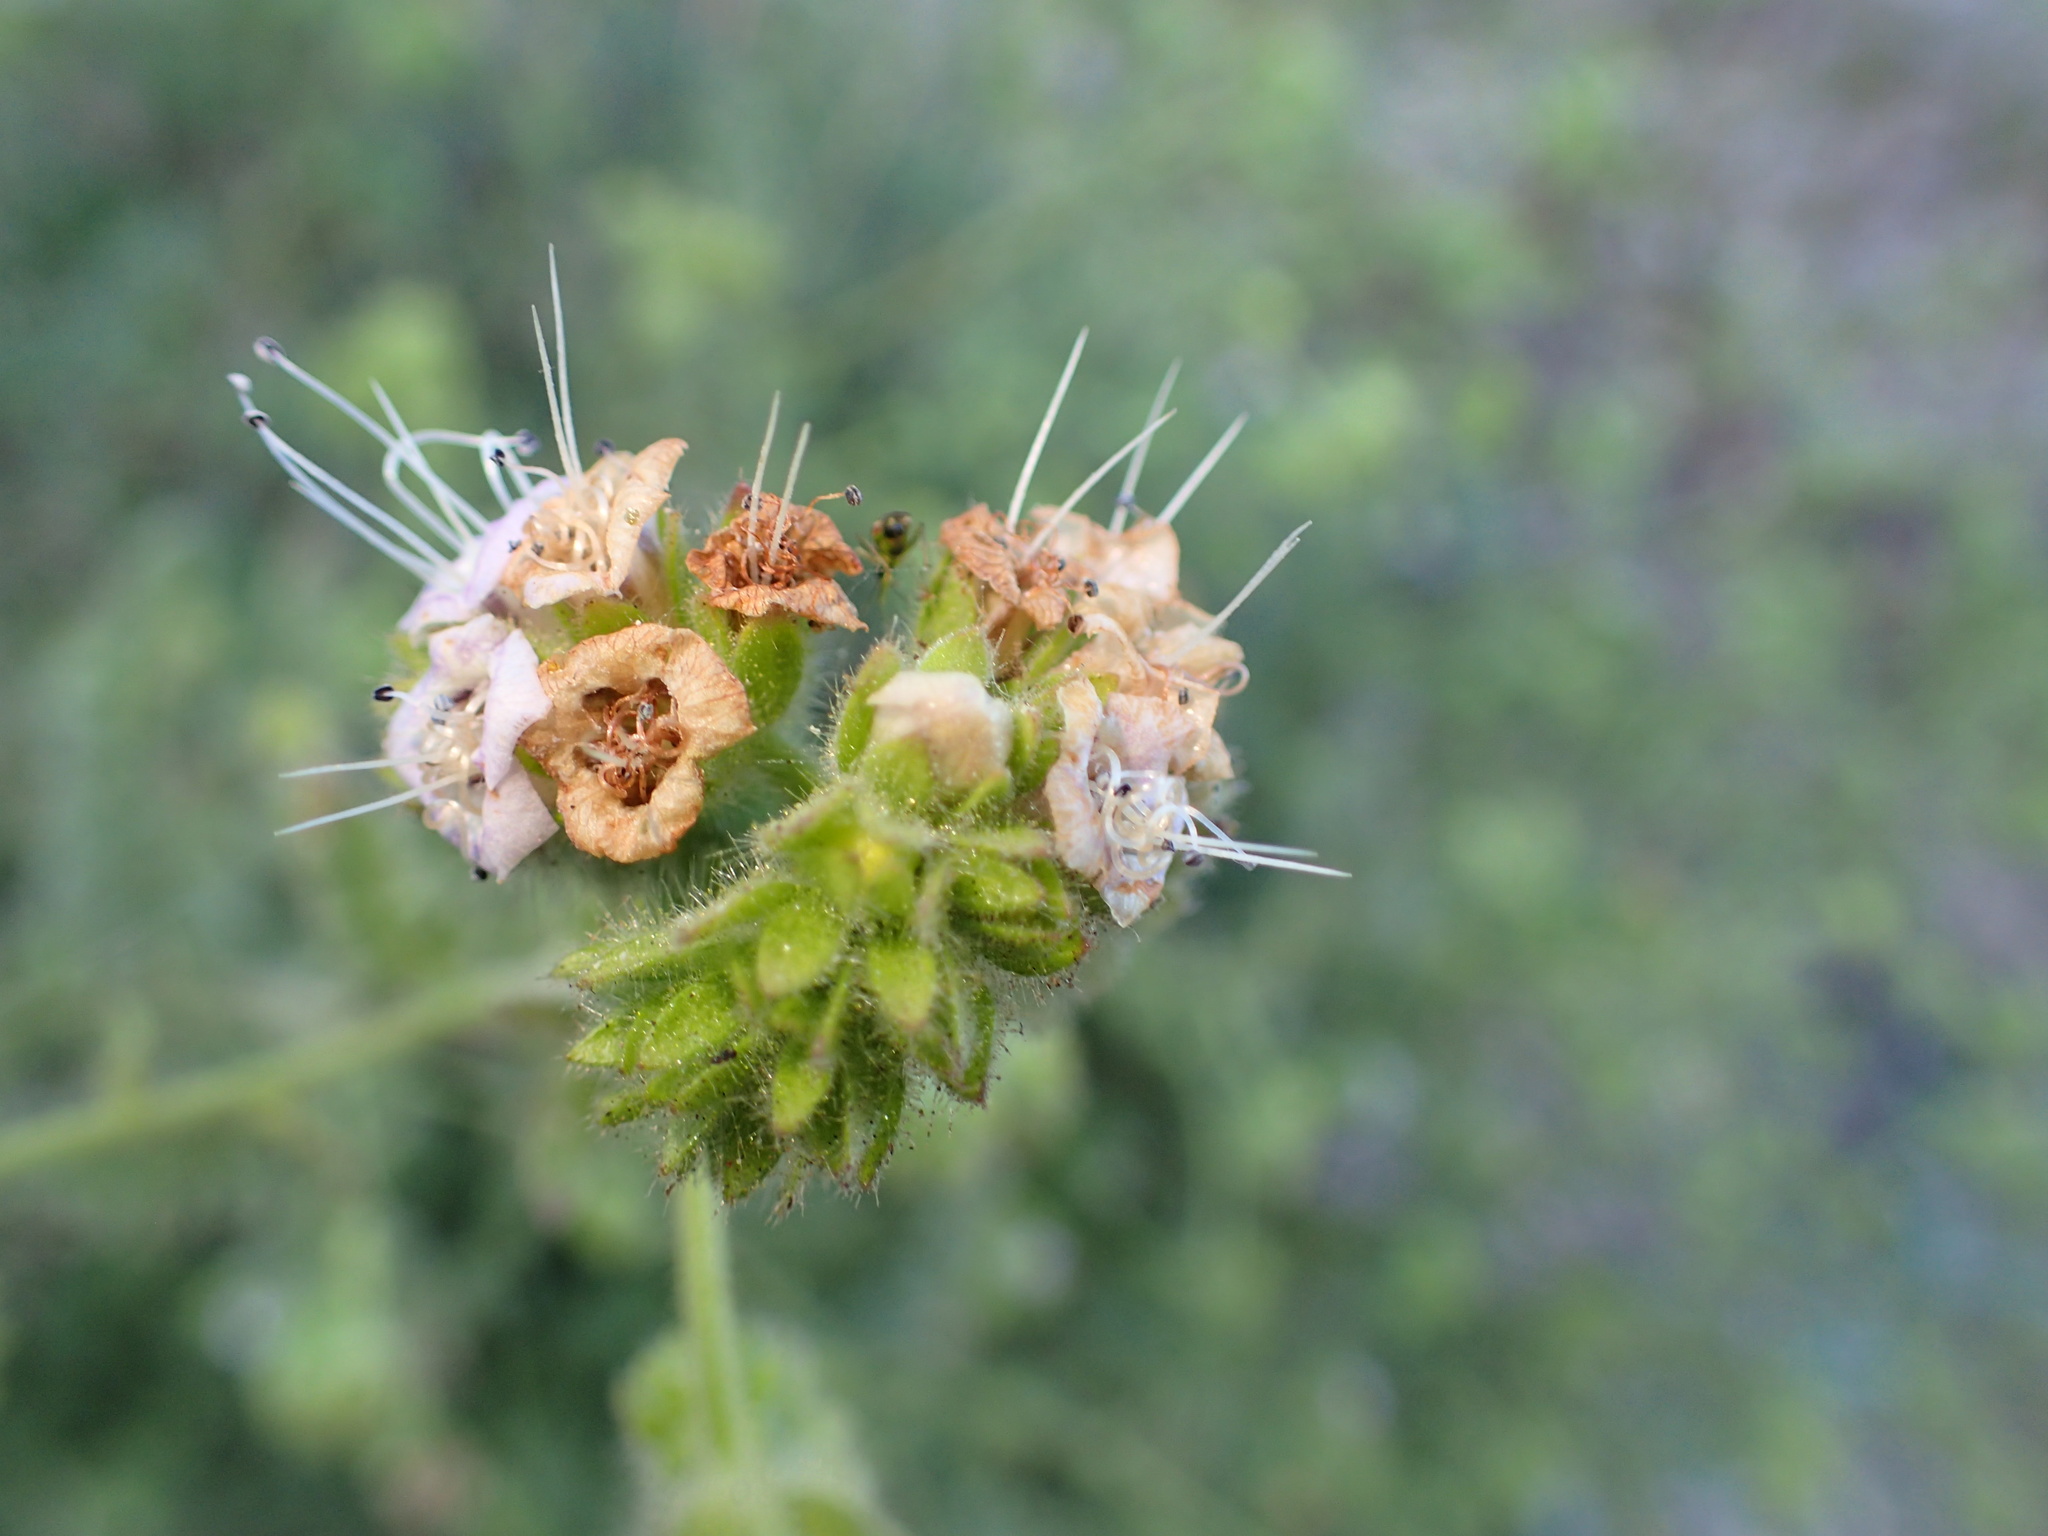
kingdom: Plantae
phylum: Tracheophyta
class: Magnoliopsida
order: Boraginales
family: Hydrophyllaceae
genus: Phacelia
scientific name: Phacelia ramosissima
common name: Branching phacelia
